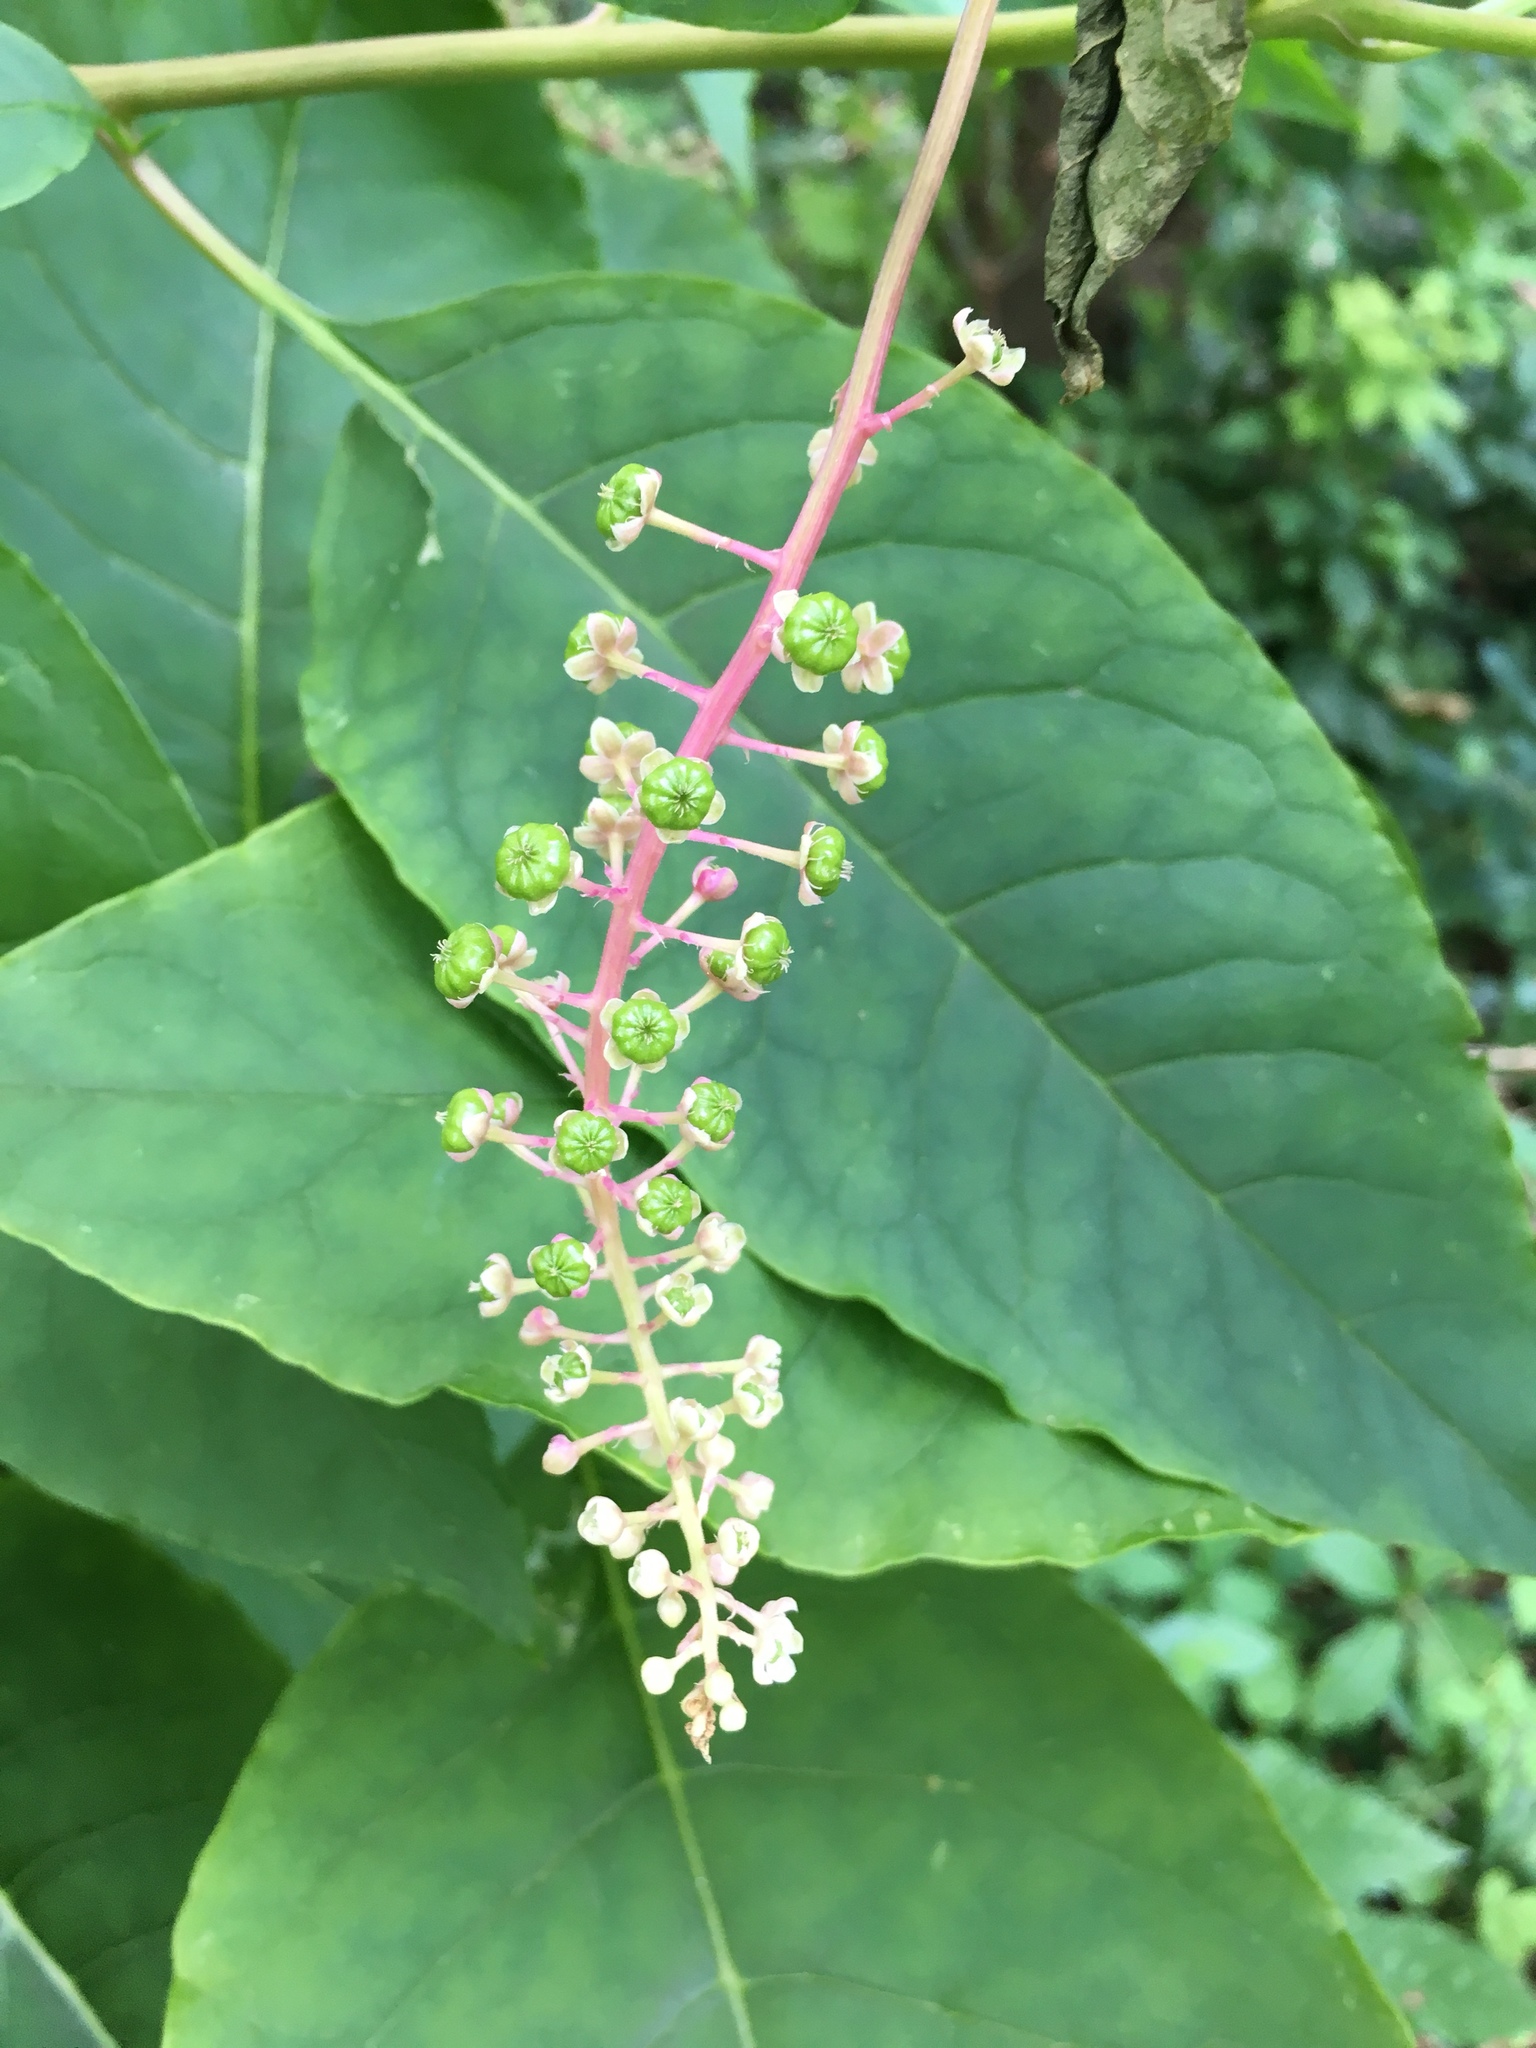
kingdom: Plantae
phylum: Tracheophyta
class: Magnoliopsida
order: Caryophyllales
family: Phytolaccaceae
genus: Phytolacca
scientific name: Phytolacca americana
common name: American pokeweed
